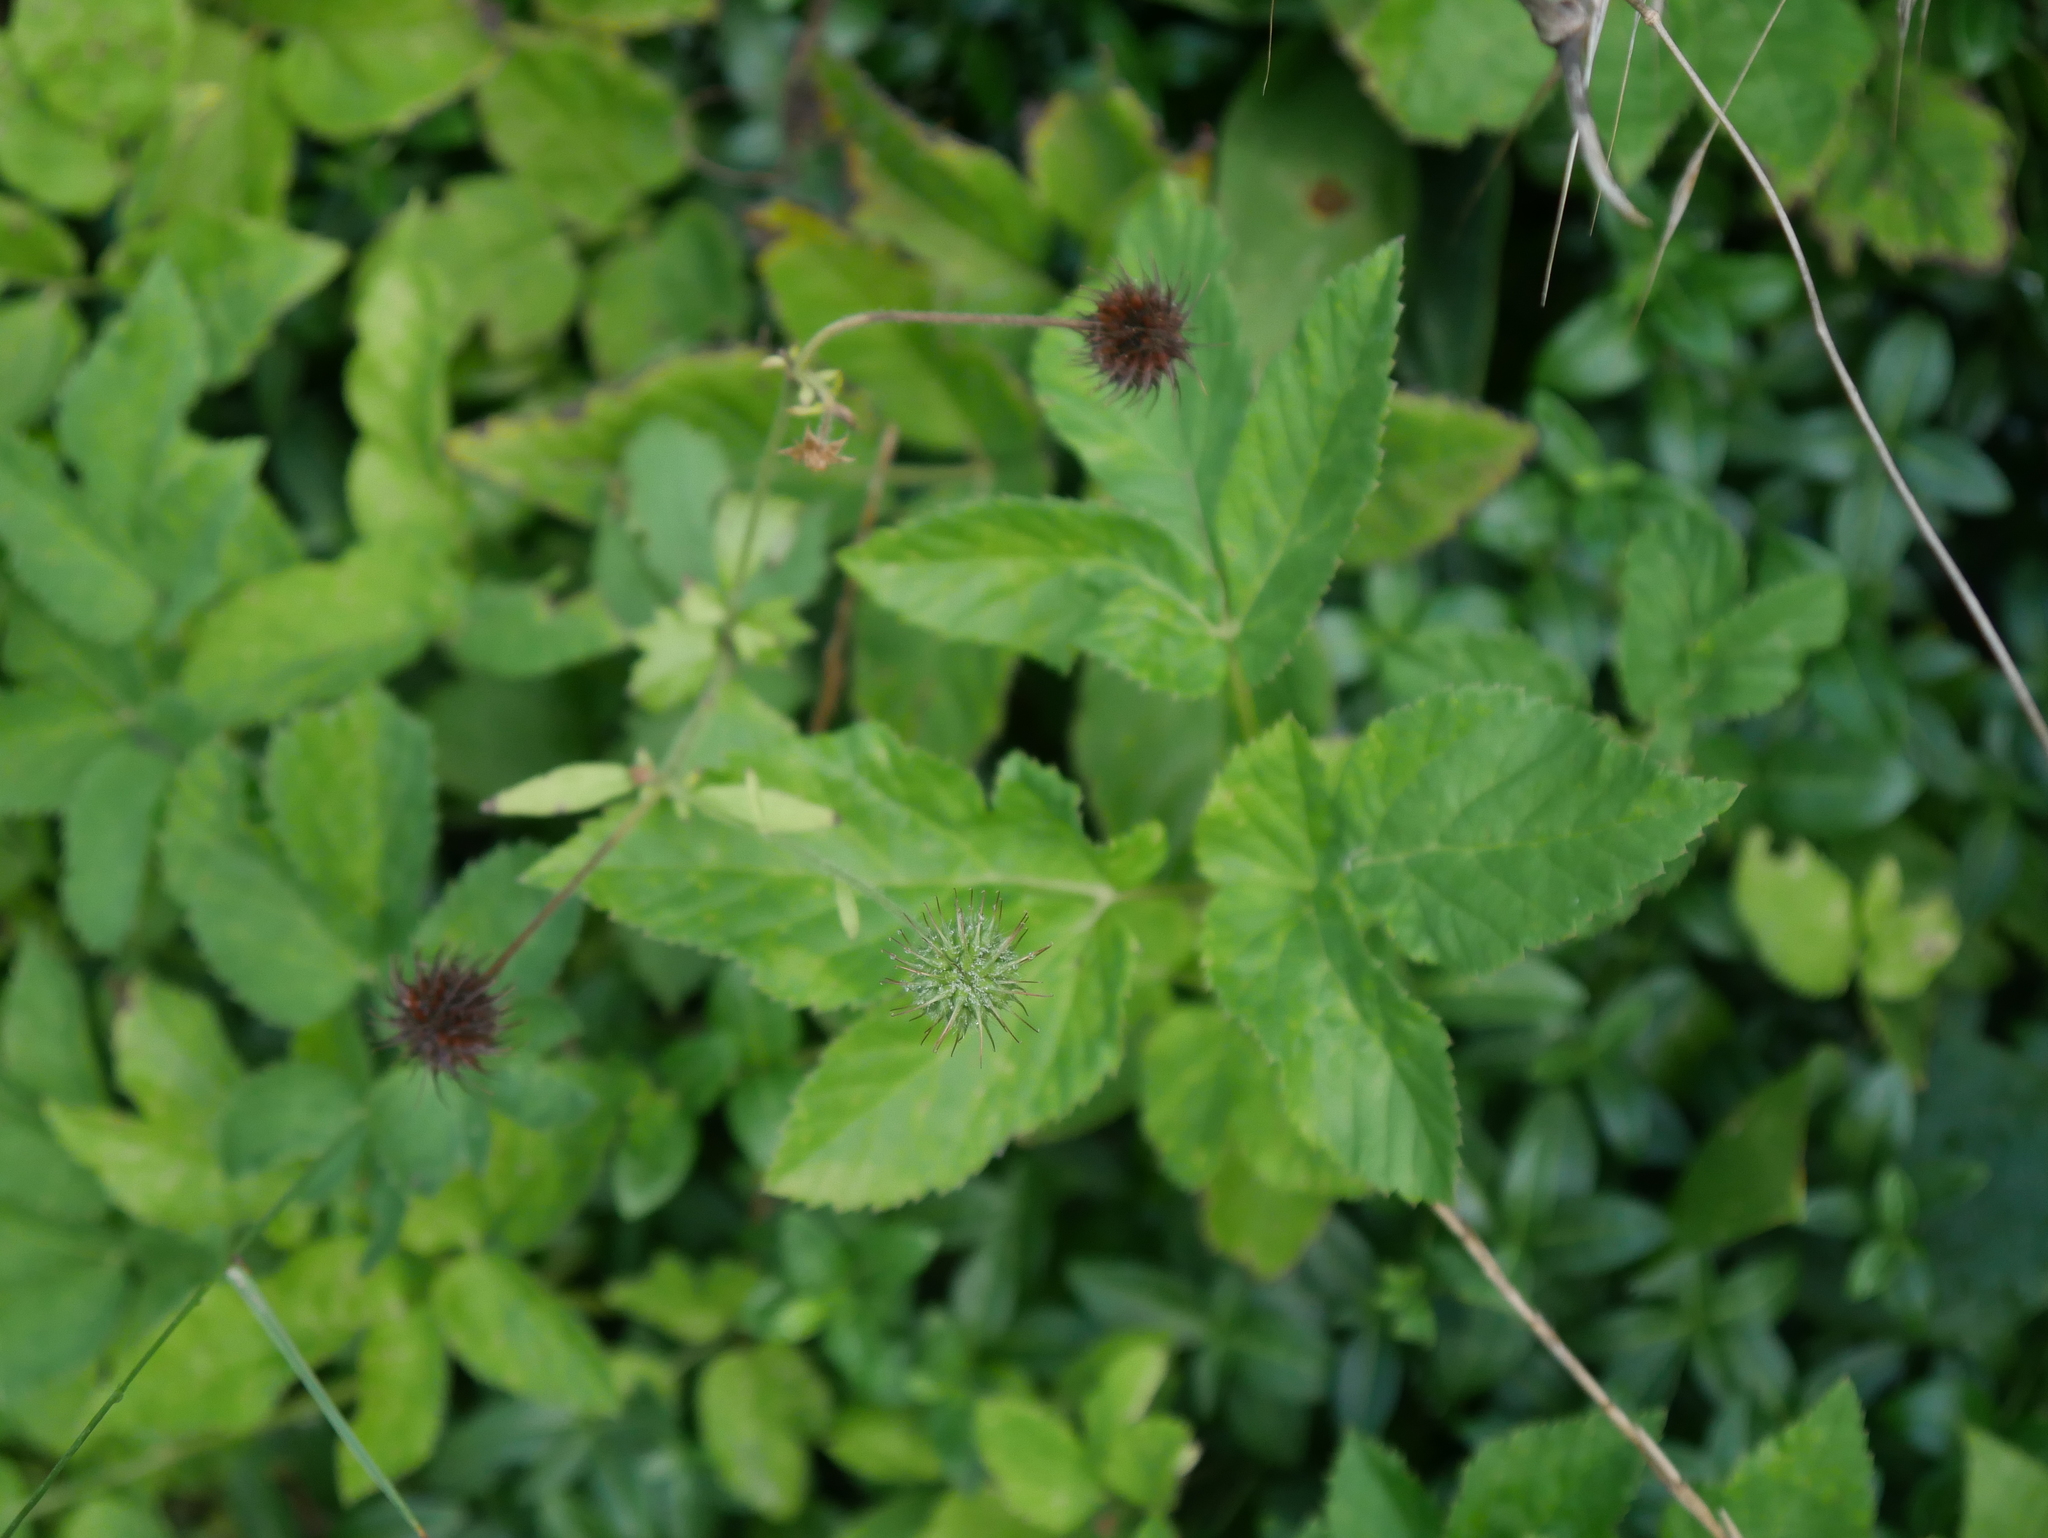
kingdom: Plantae
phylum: Tracheophyta
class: Magnoliopsida
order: Rosales
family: Rosaceae
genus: Geum
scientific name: Geum urbanum
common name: Wood avens
